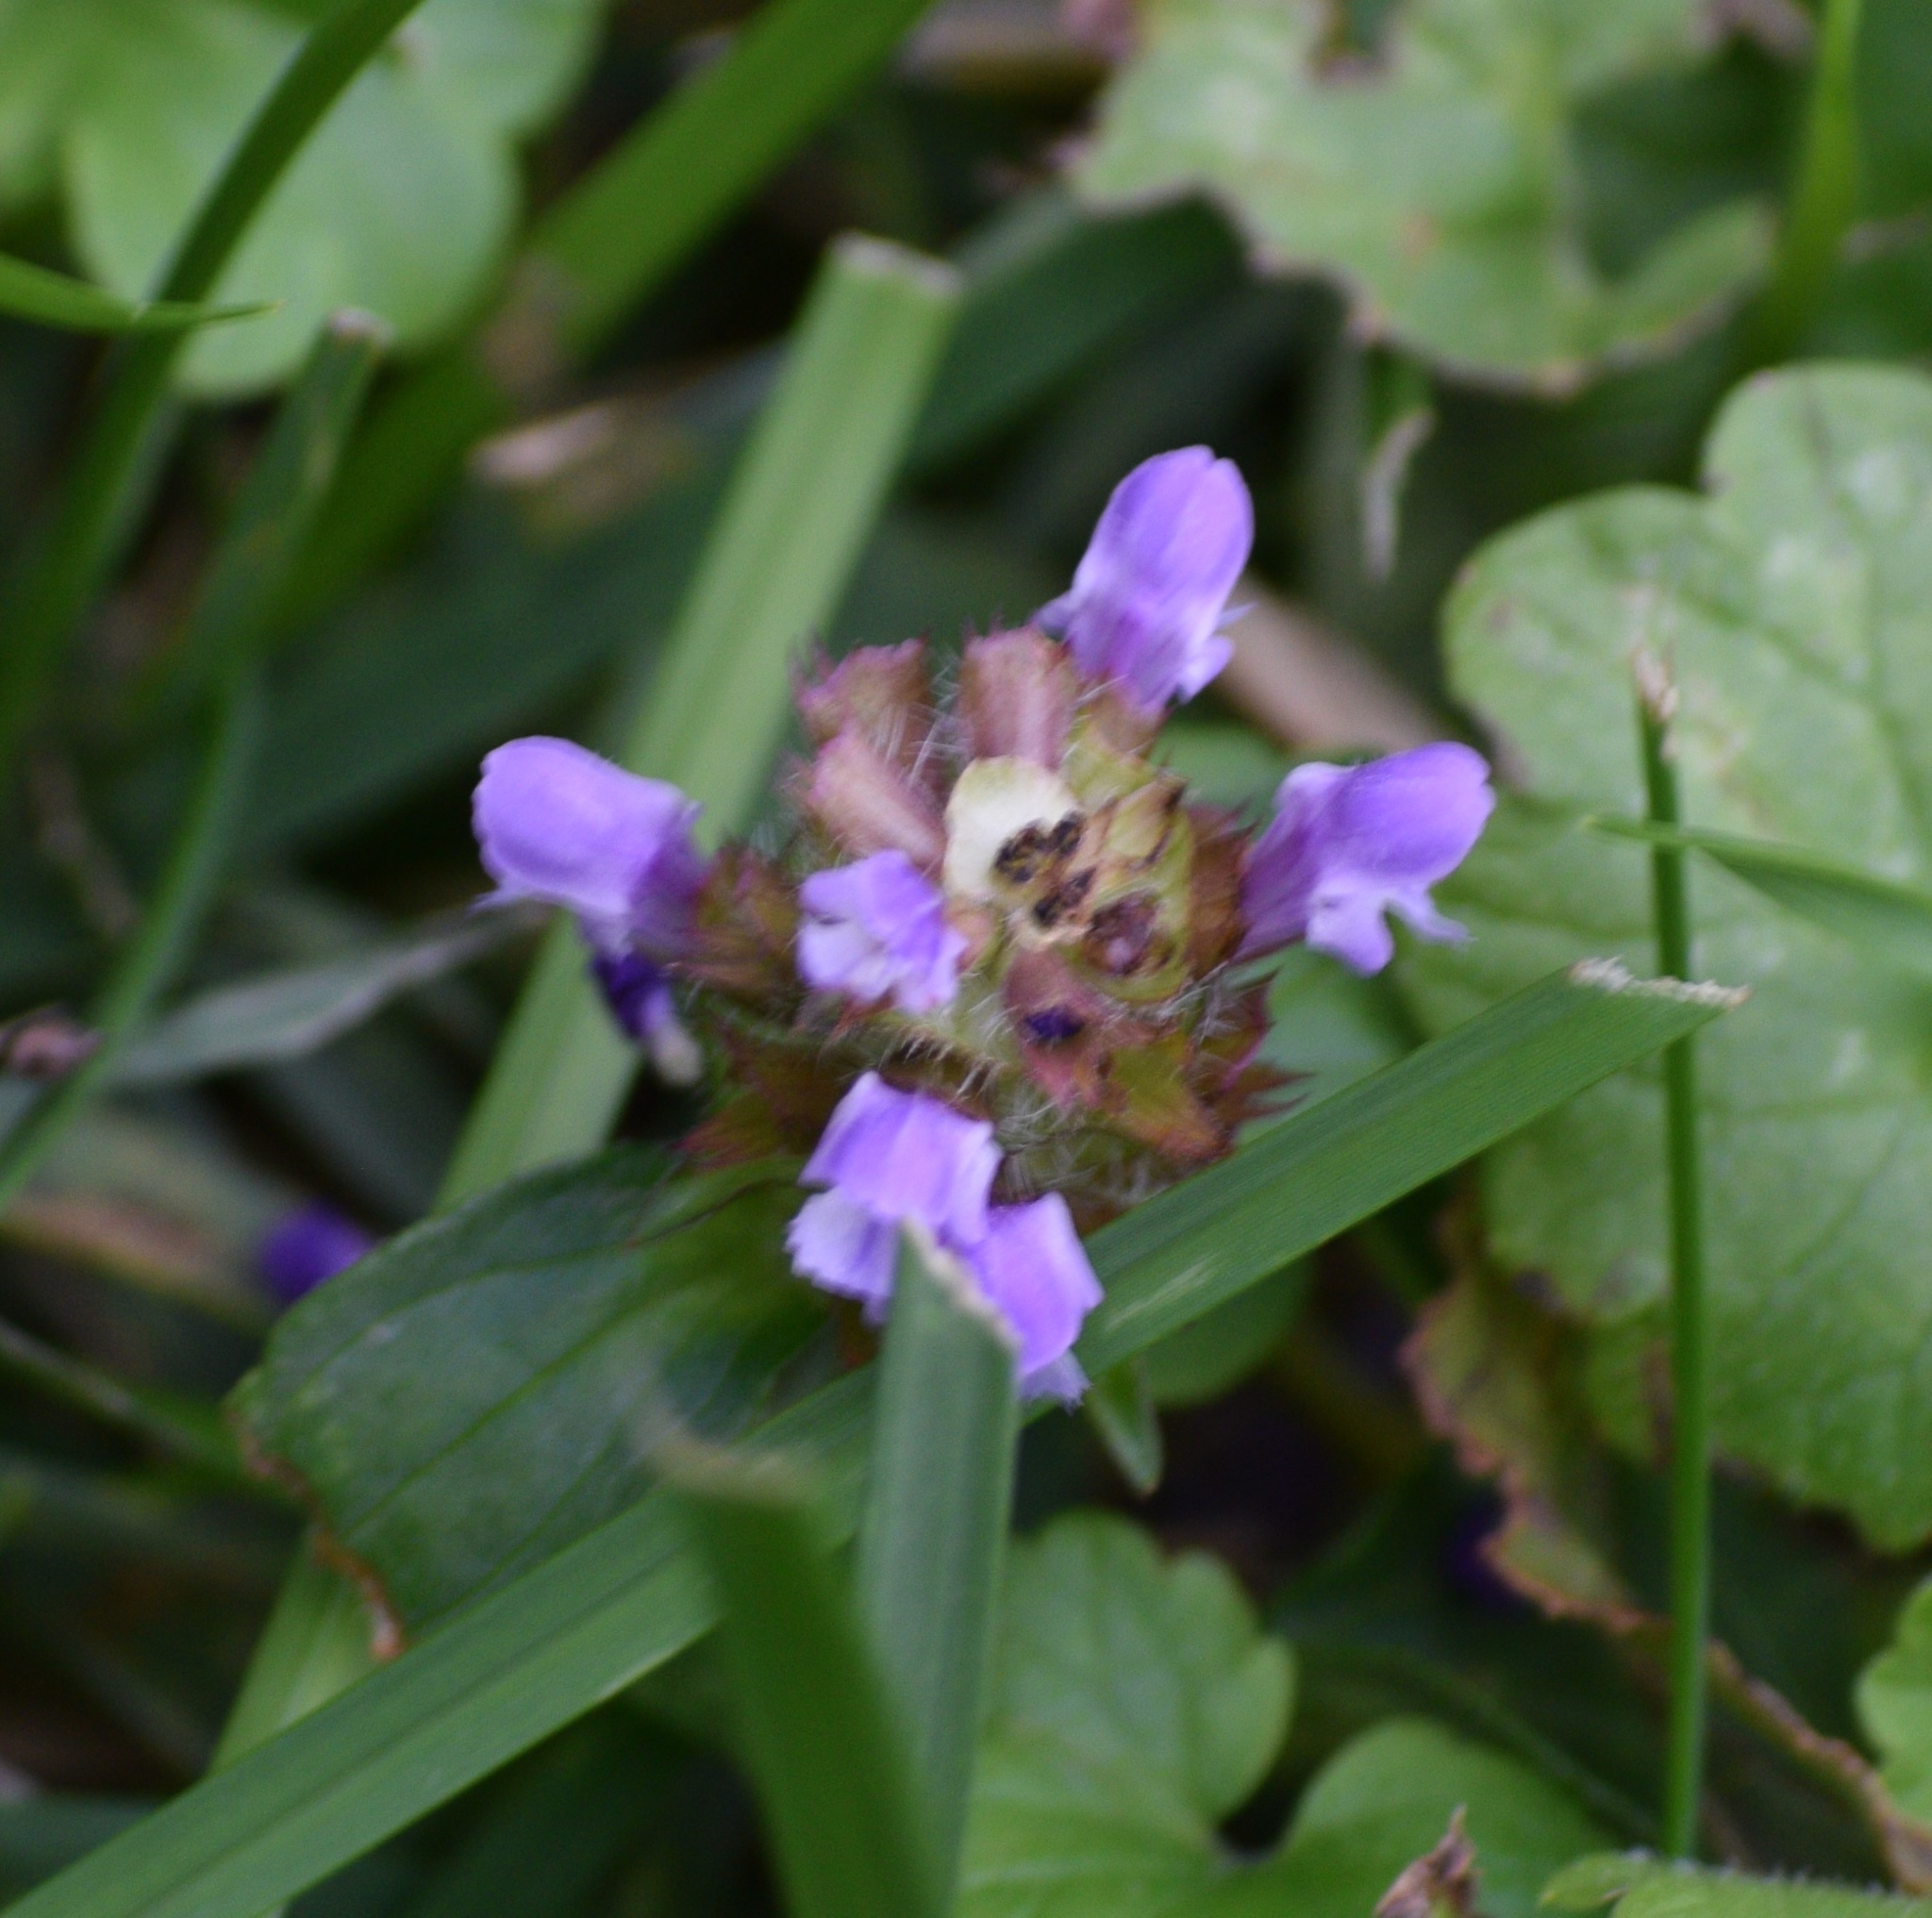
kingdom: Plantae
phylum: Tracheophyta
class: Magnoliopsida
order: Lamiales
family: Lamiaceae
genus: Prunella
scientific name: Prunella vulgaris
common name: Heal-all
